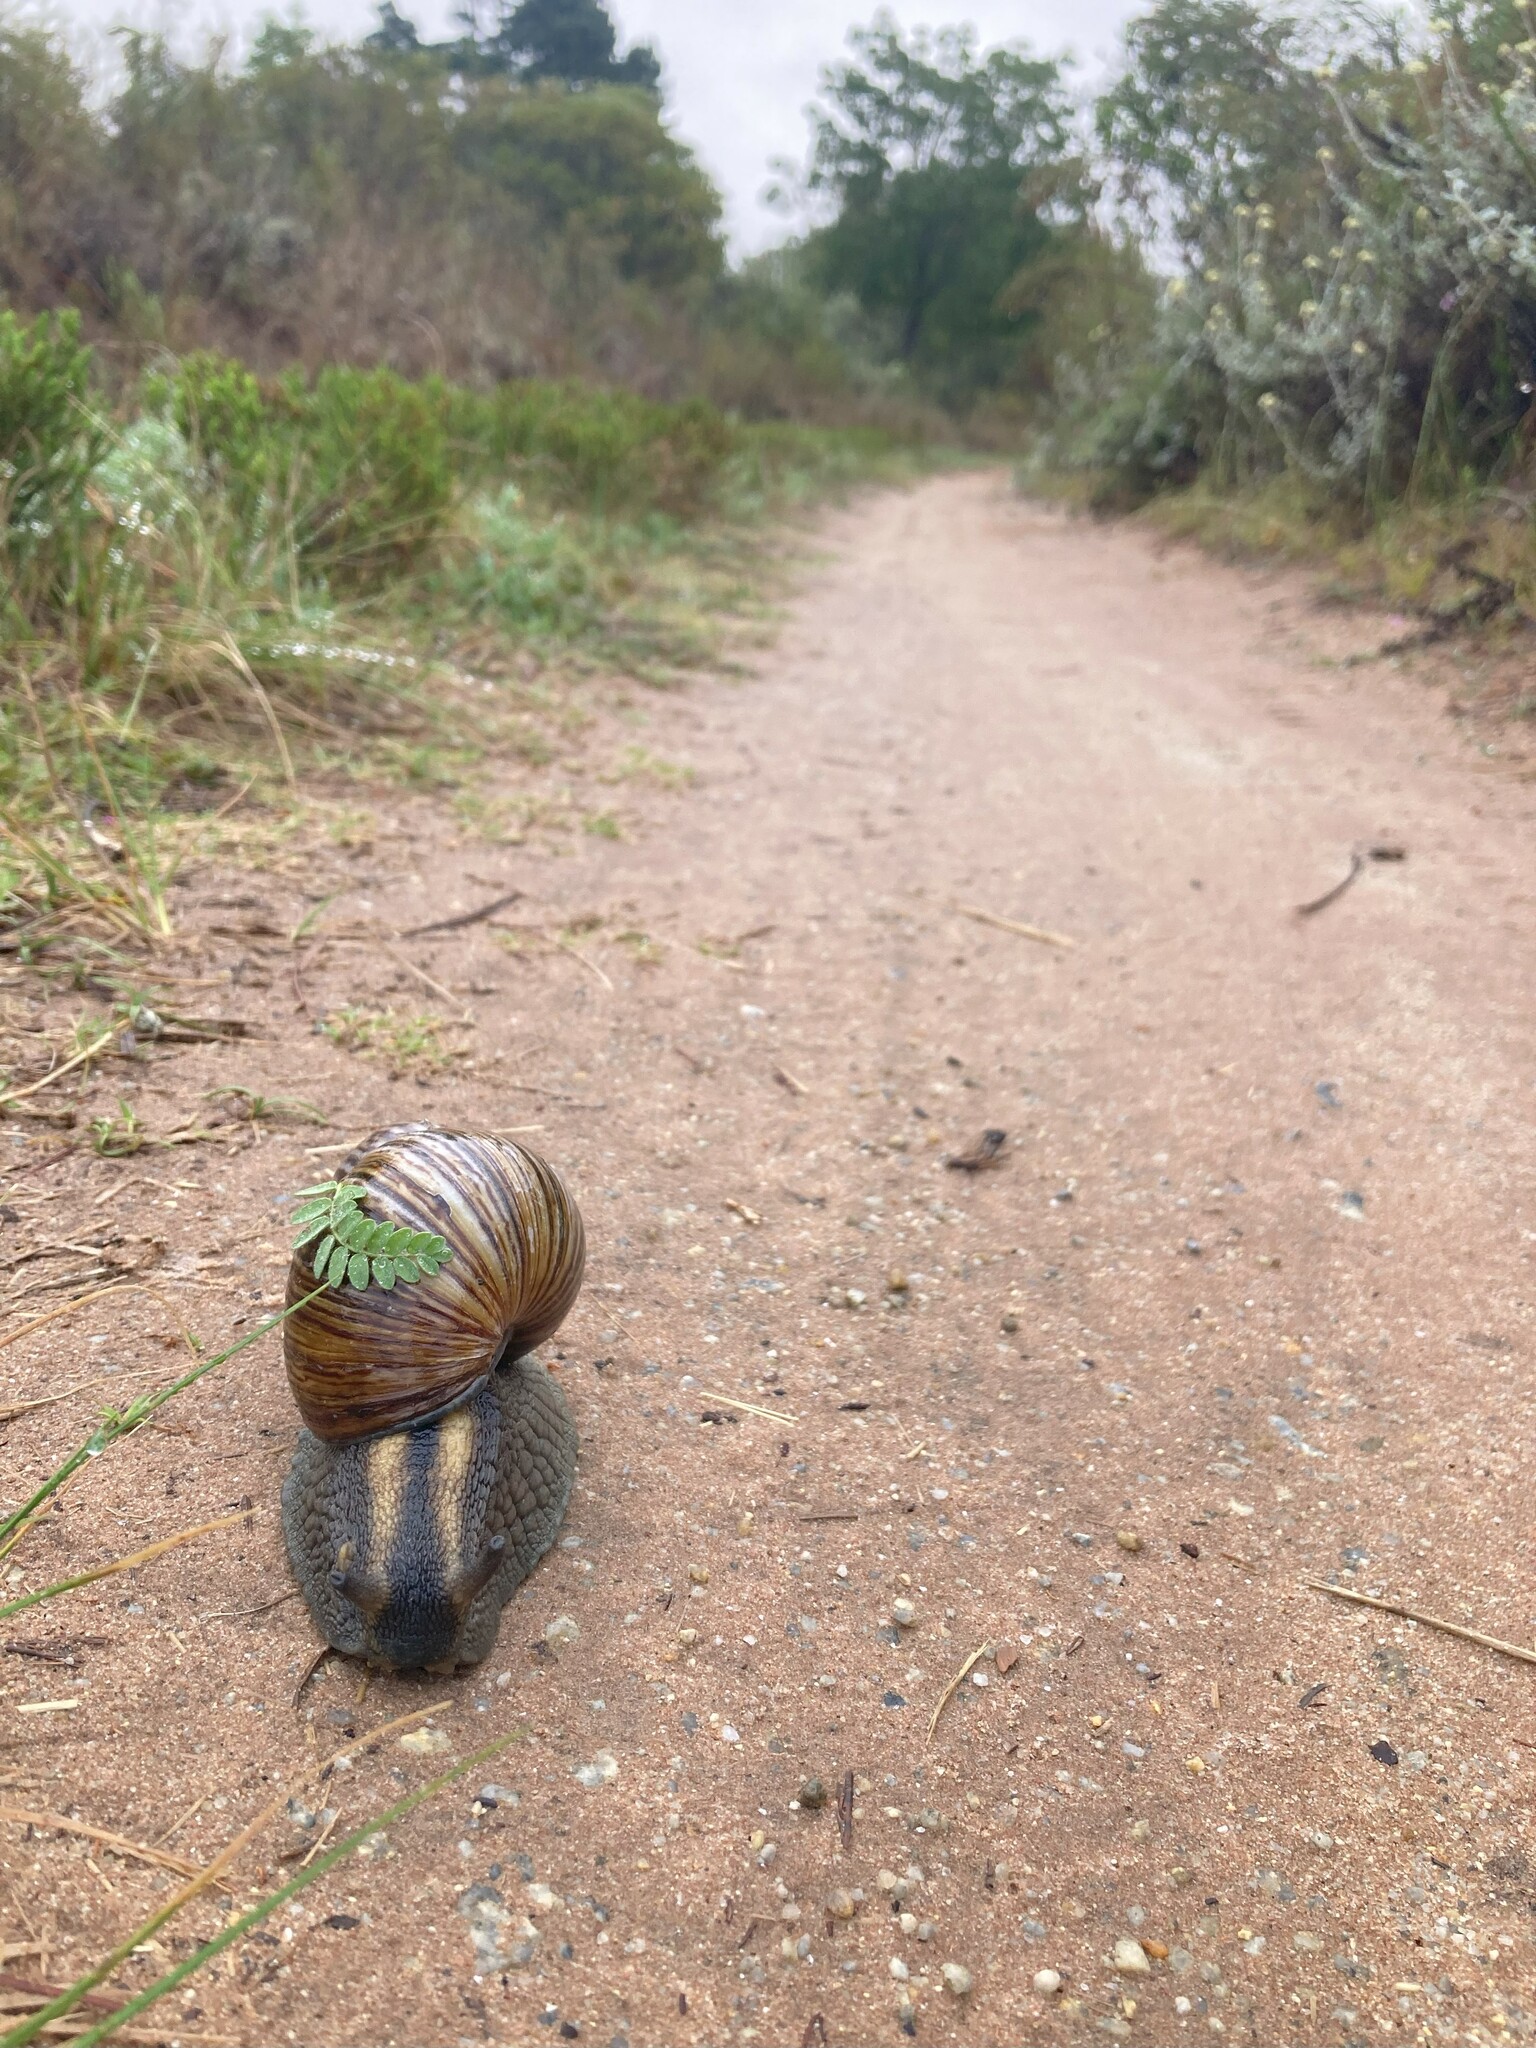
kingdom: Animalia
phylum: Mollusca
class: Gastropoda
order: Stylommatophora
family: Achatinidae
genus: Cochlitoma
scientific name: Cochlitoma zebra
